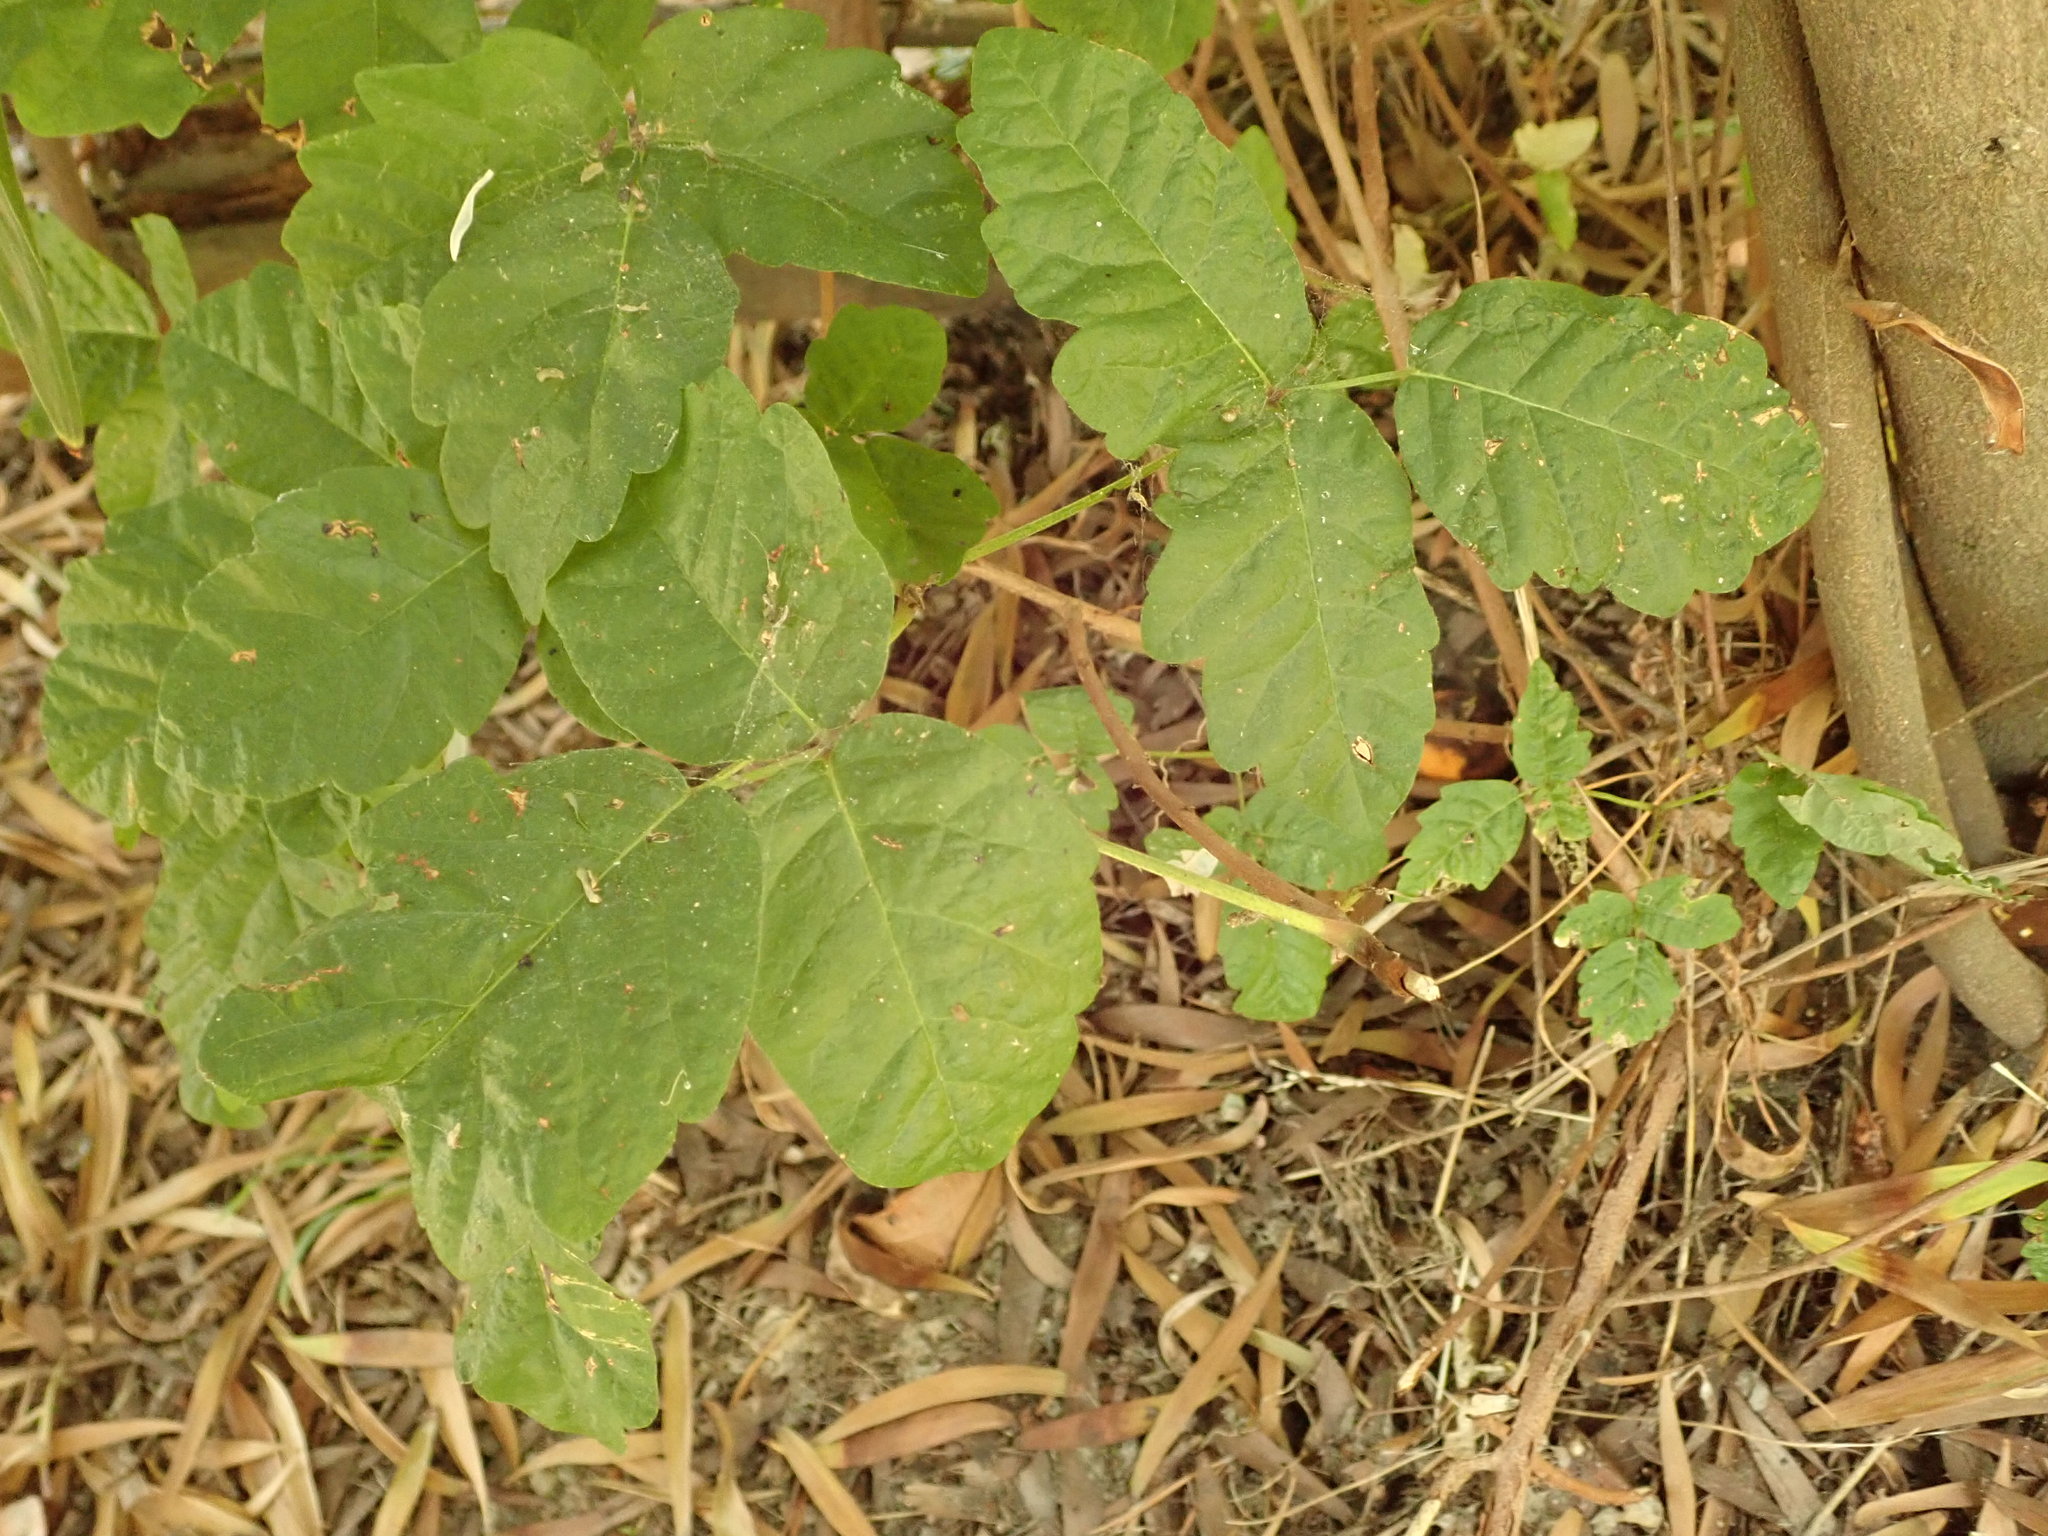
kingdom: Plantae
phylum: Tracheophyta
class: Magnoliopsida
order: Sapindales
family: Anacardiaceae
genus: Toxicodendron
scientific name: Toxicodendron diversilobum
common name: Pacific poison-oak
